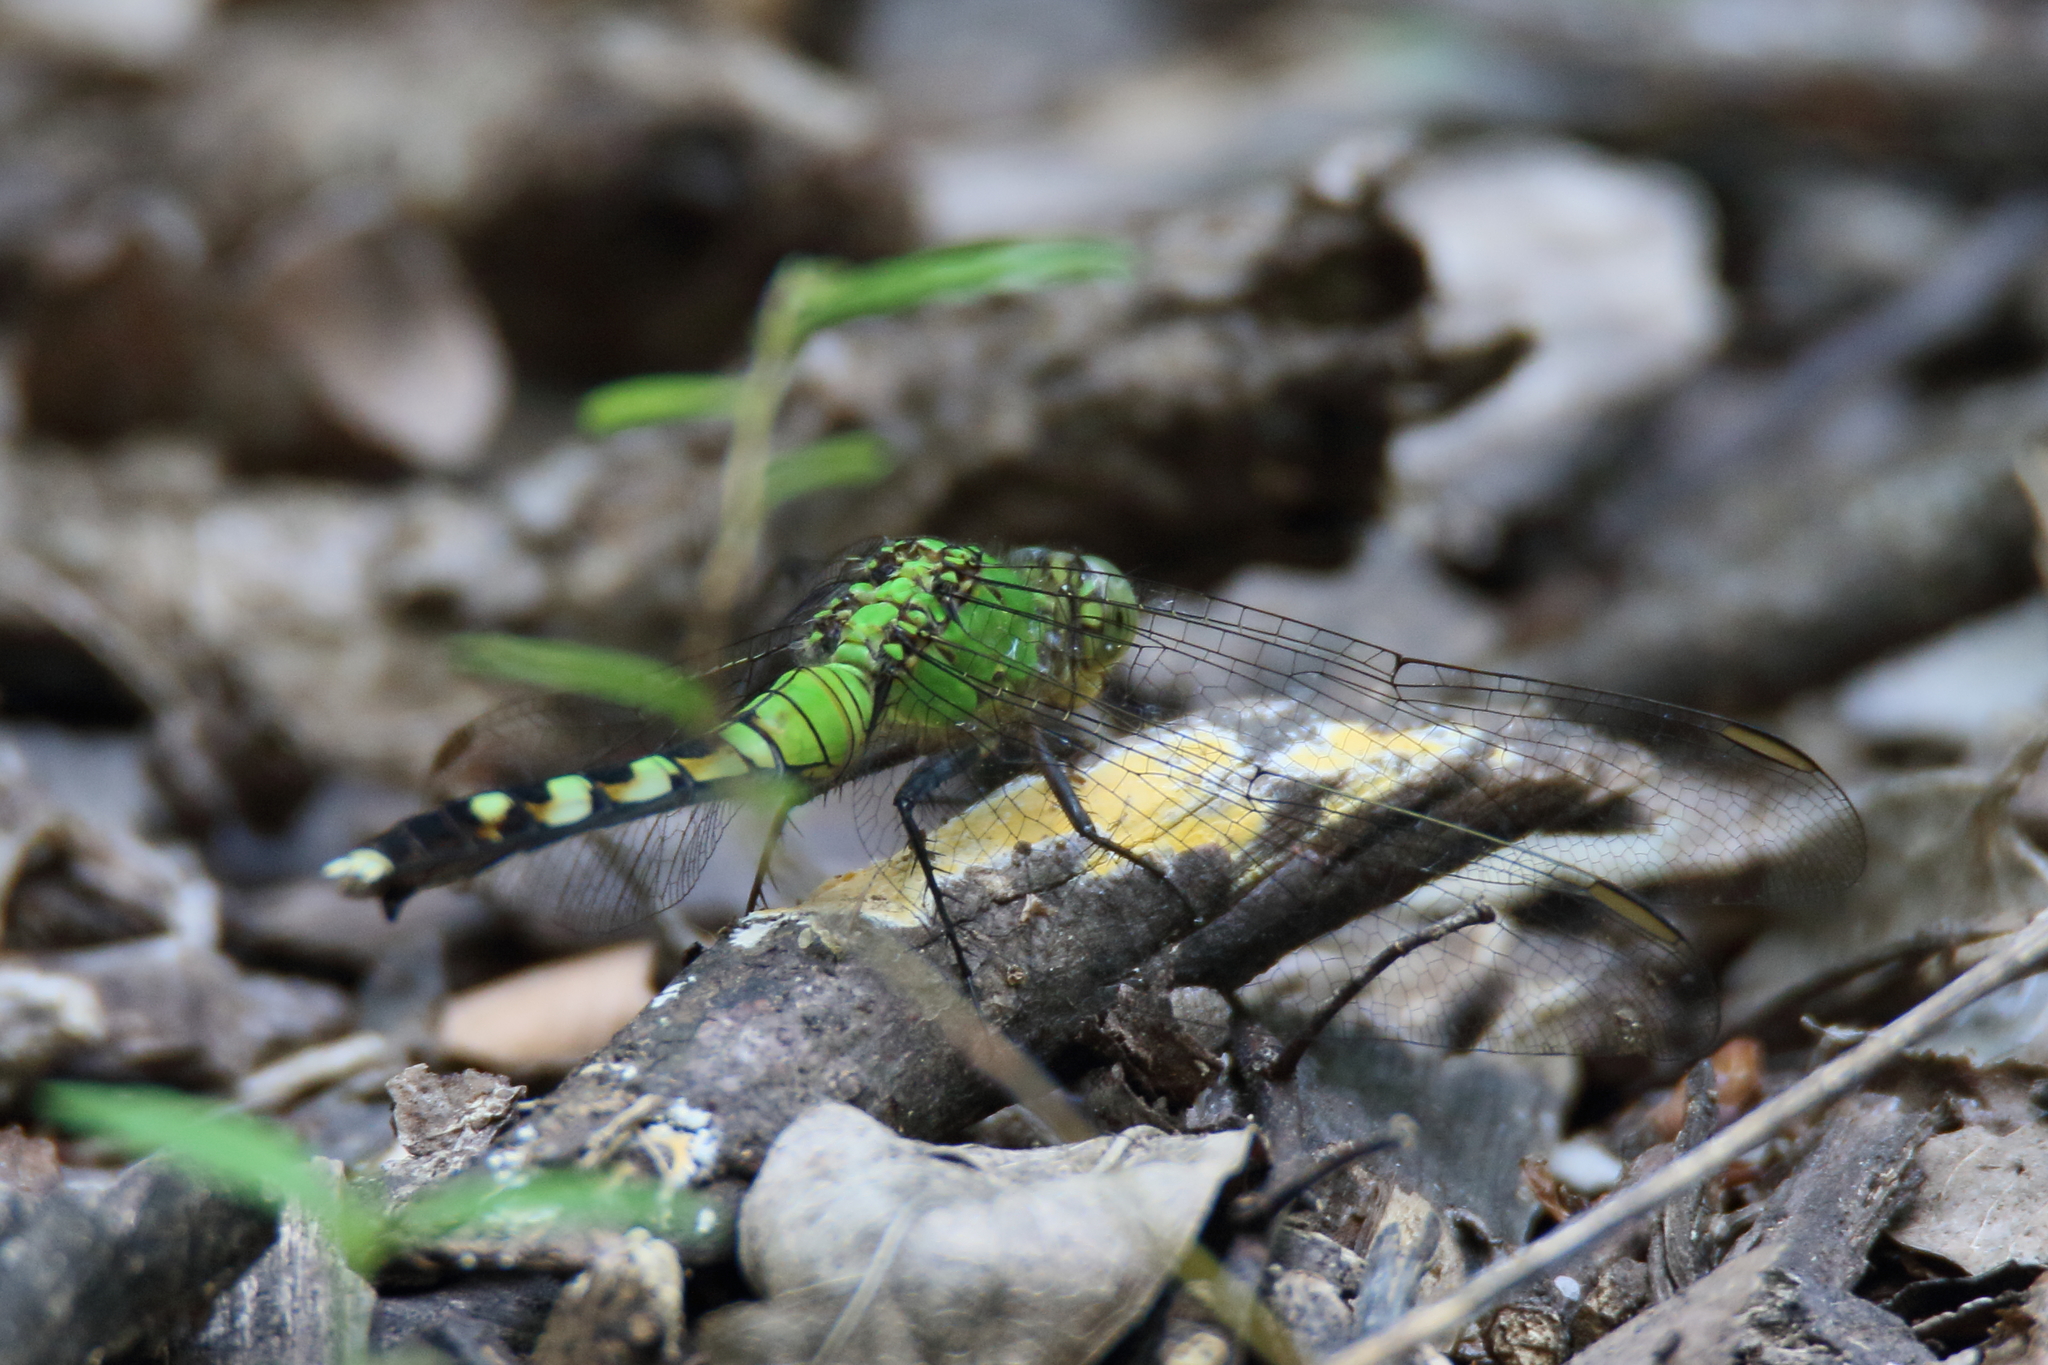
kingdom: Animalia
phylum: Arthropoda
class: Insecta
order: Odonata
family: Libellulidae
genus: Erythemis
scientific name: Erythemis simplicicollis
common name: Eastern pondhawk
